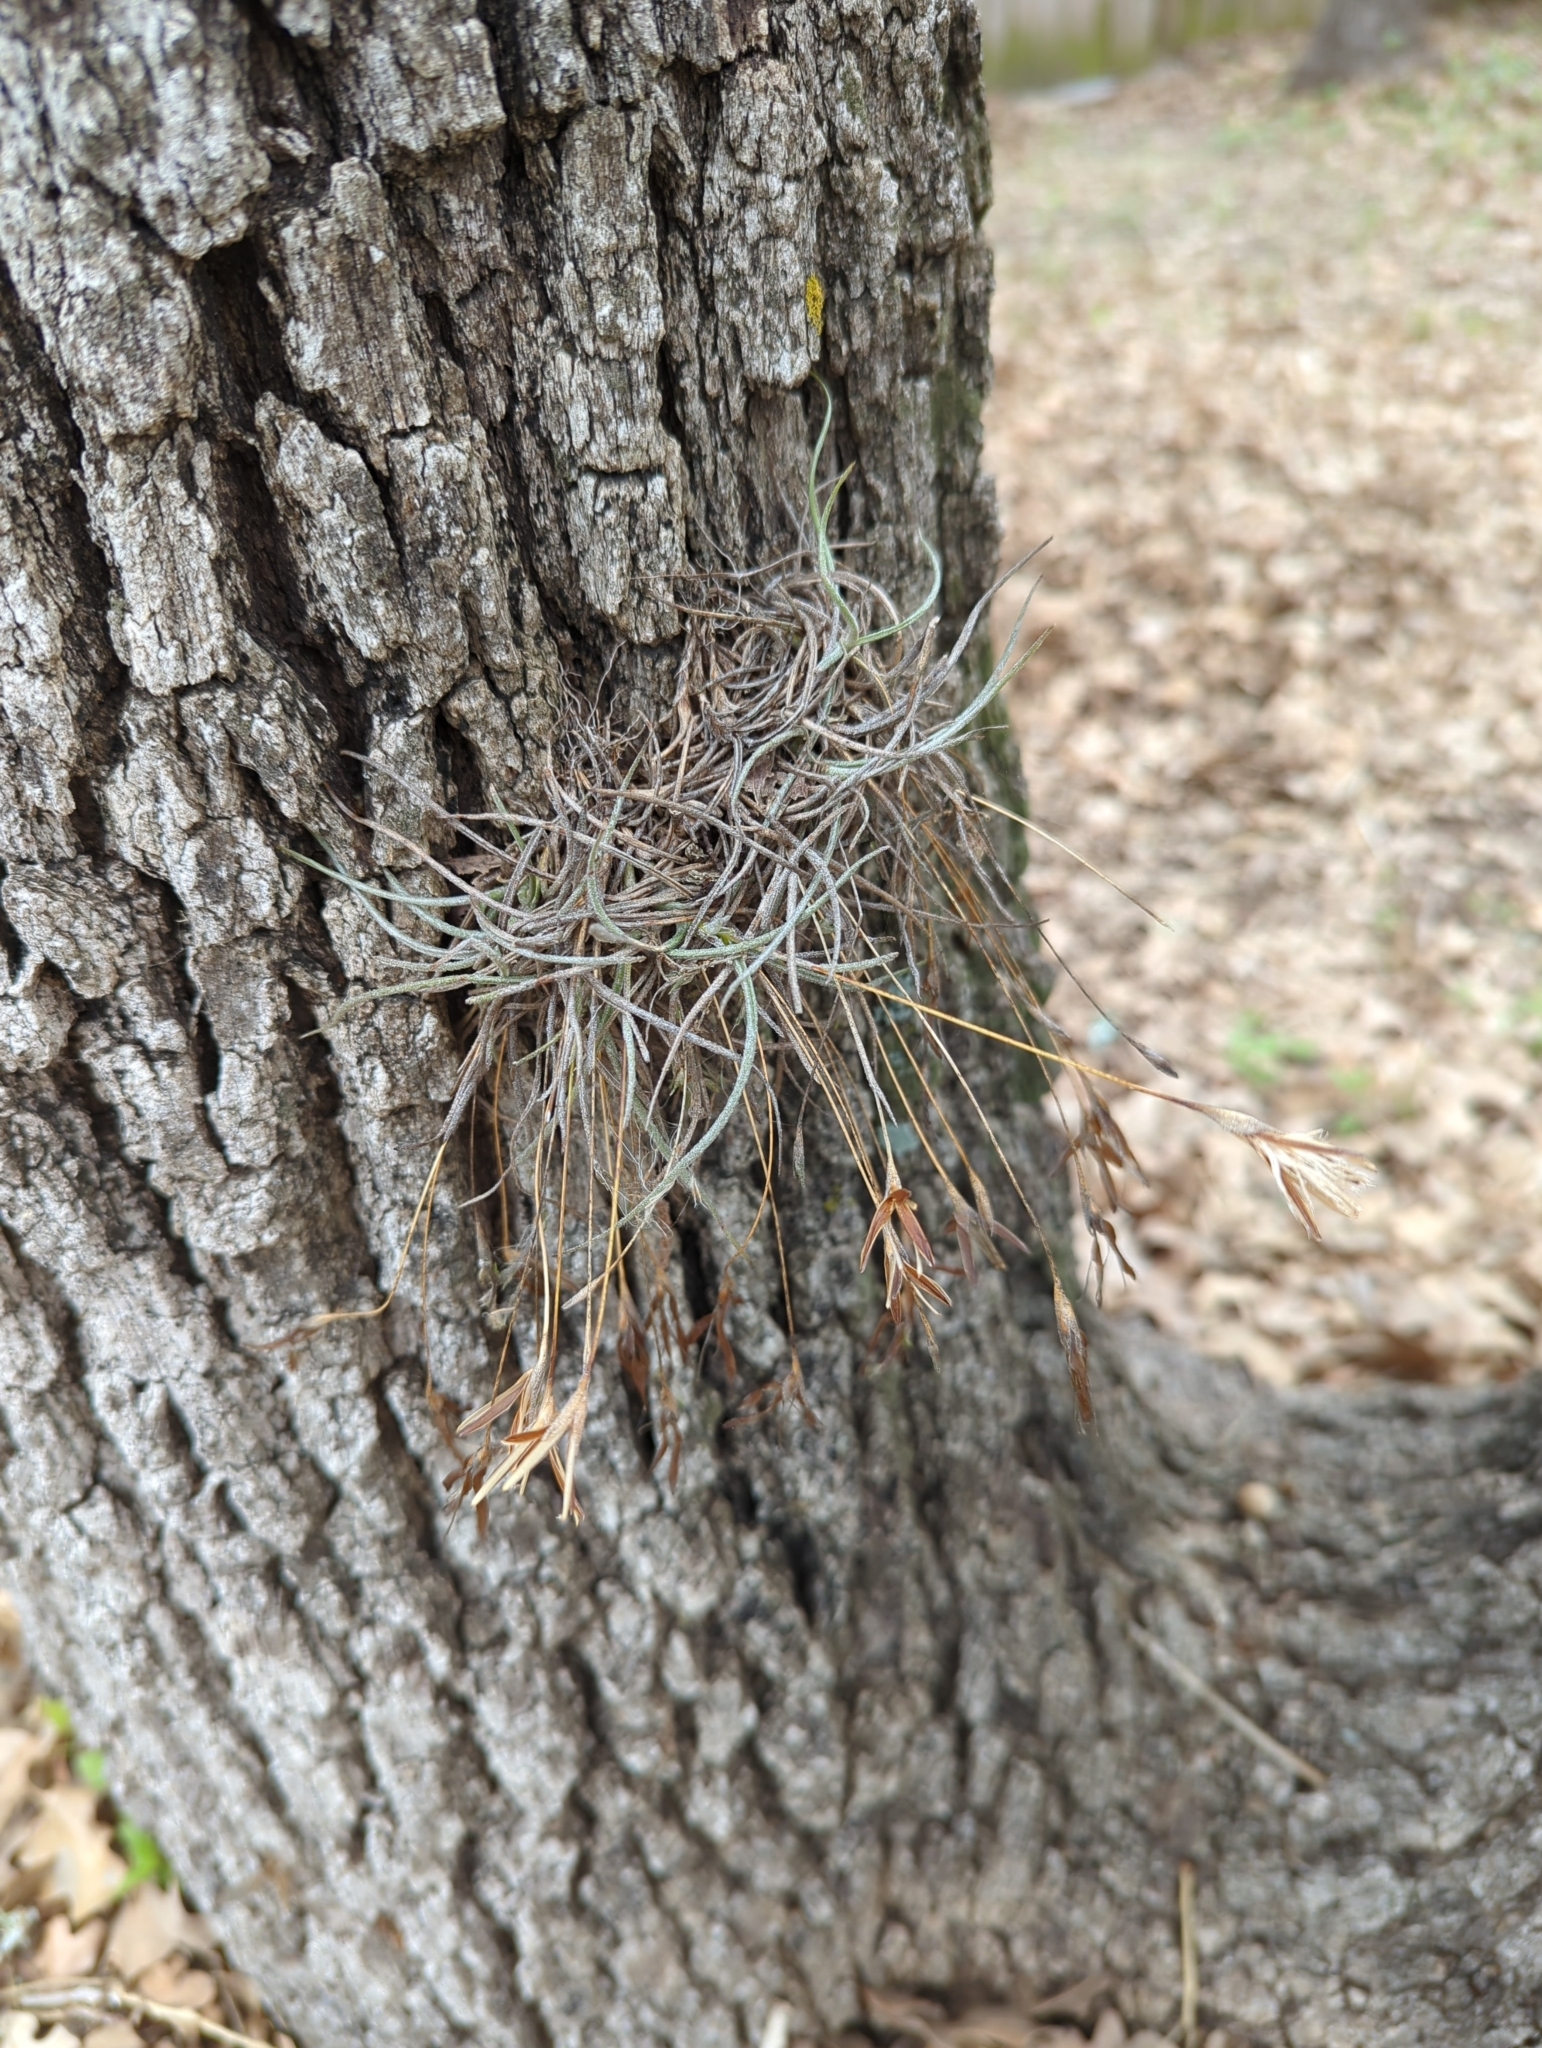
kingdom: Plantae
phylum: Tracheophyta
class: Liliopsida
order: Poales
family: Bromeliaceae
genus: Tillandsia
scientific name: Tillandsia recurvata
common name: Small ballmoss
